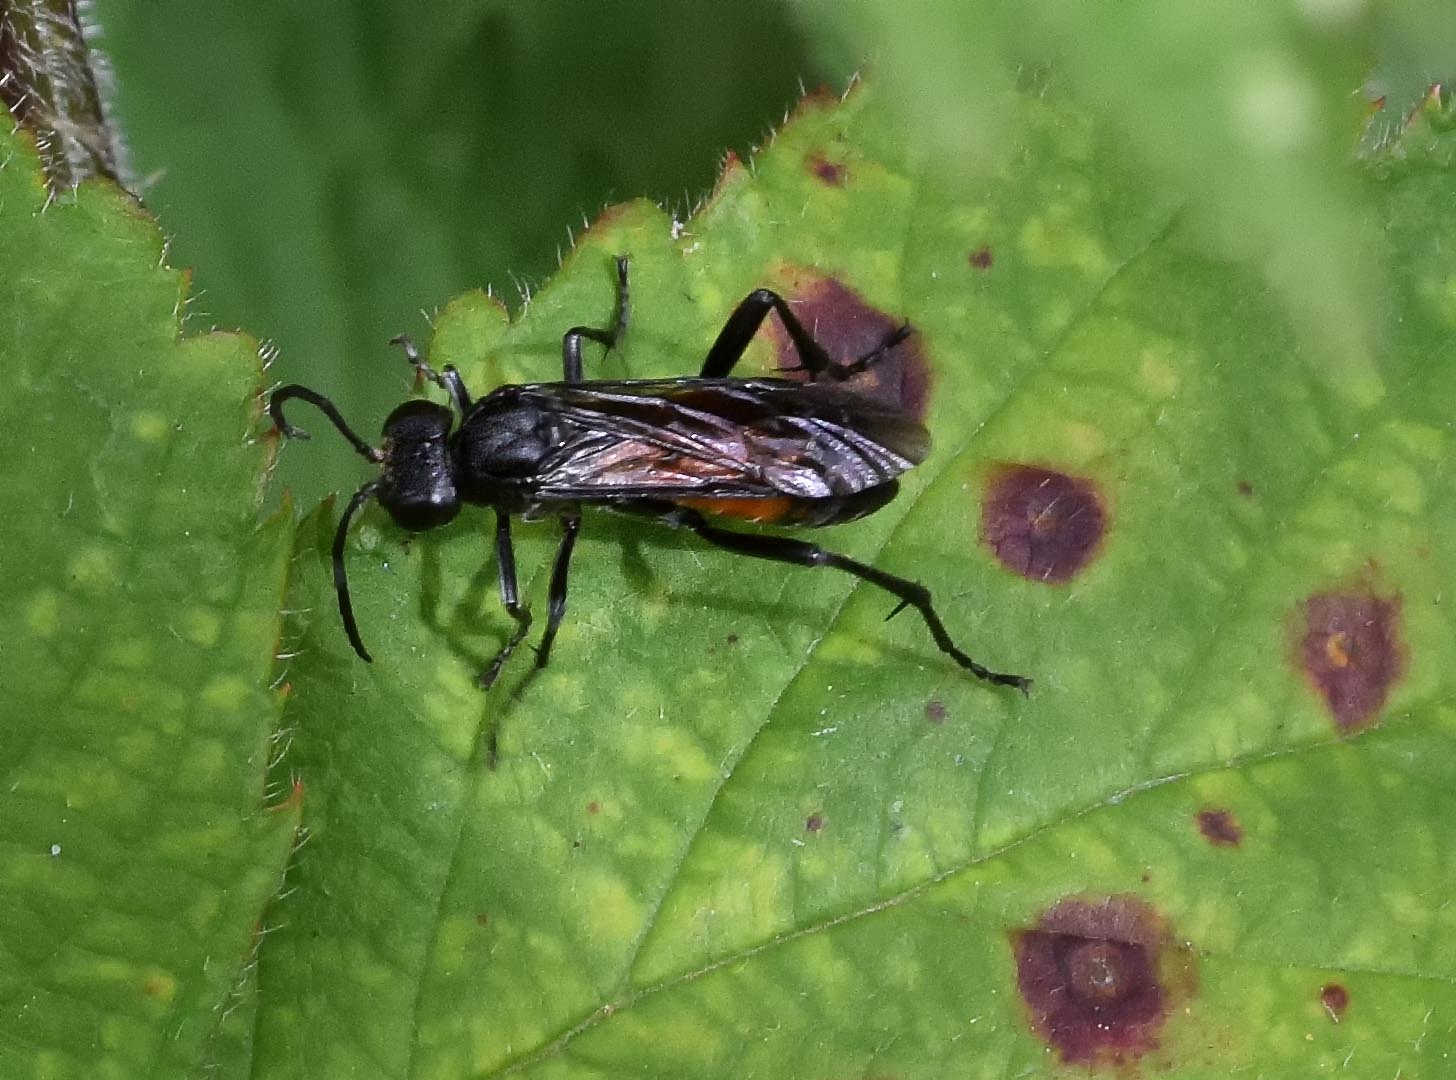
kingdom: Animalia
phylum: Arthropoda
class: Insecta
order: Hymenoptera
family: Tenthredinidae
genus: Macrophya
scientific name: Macrophya annulata
